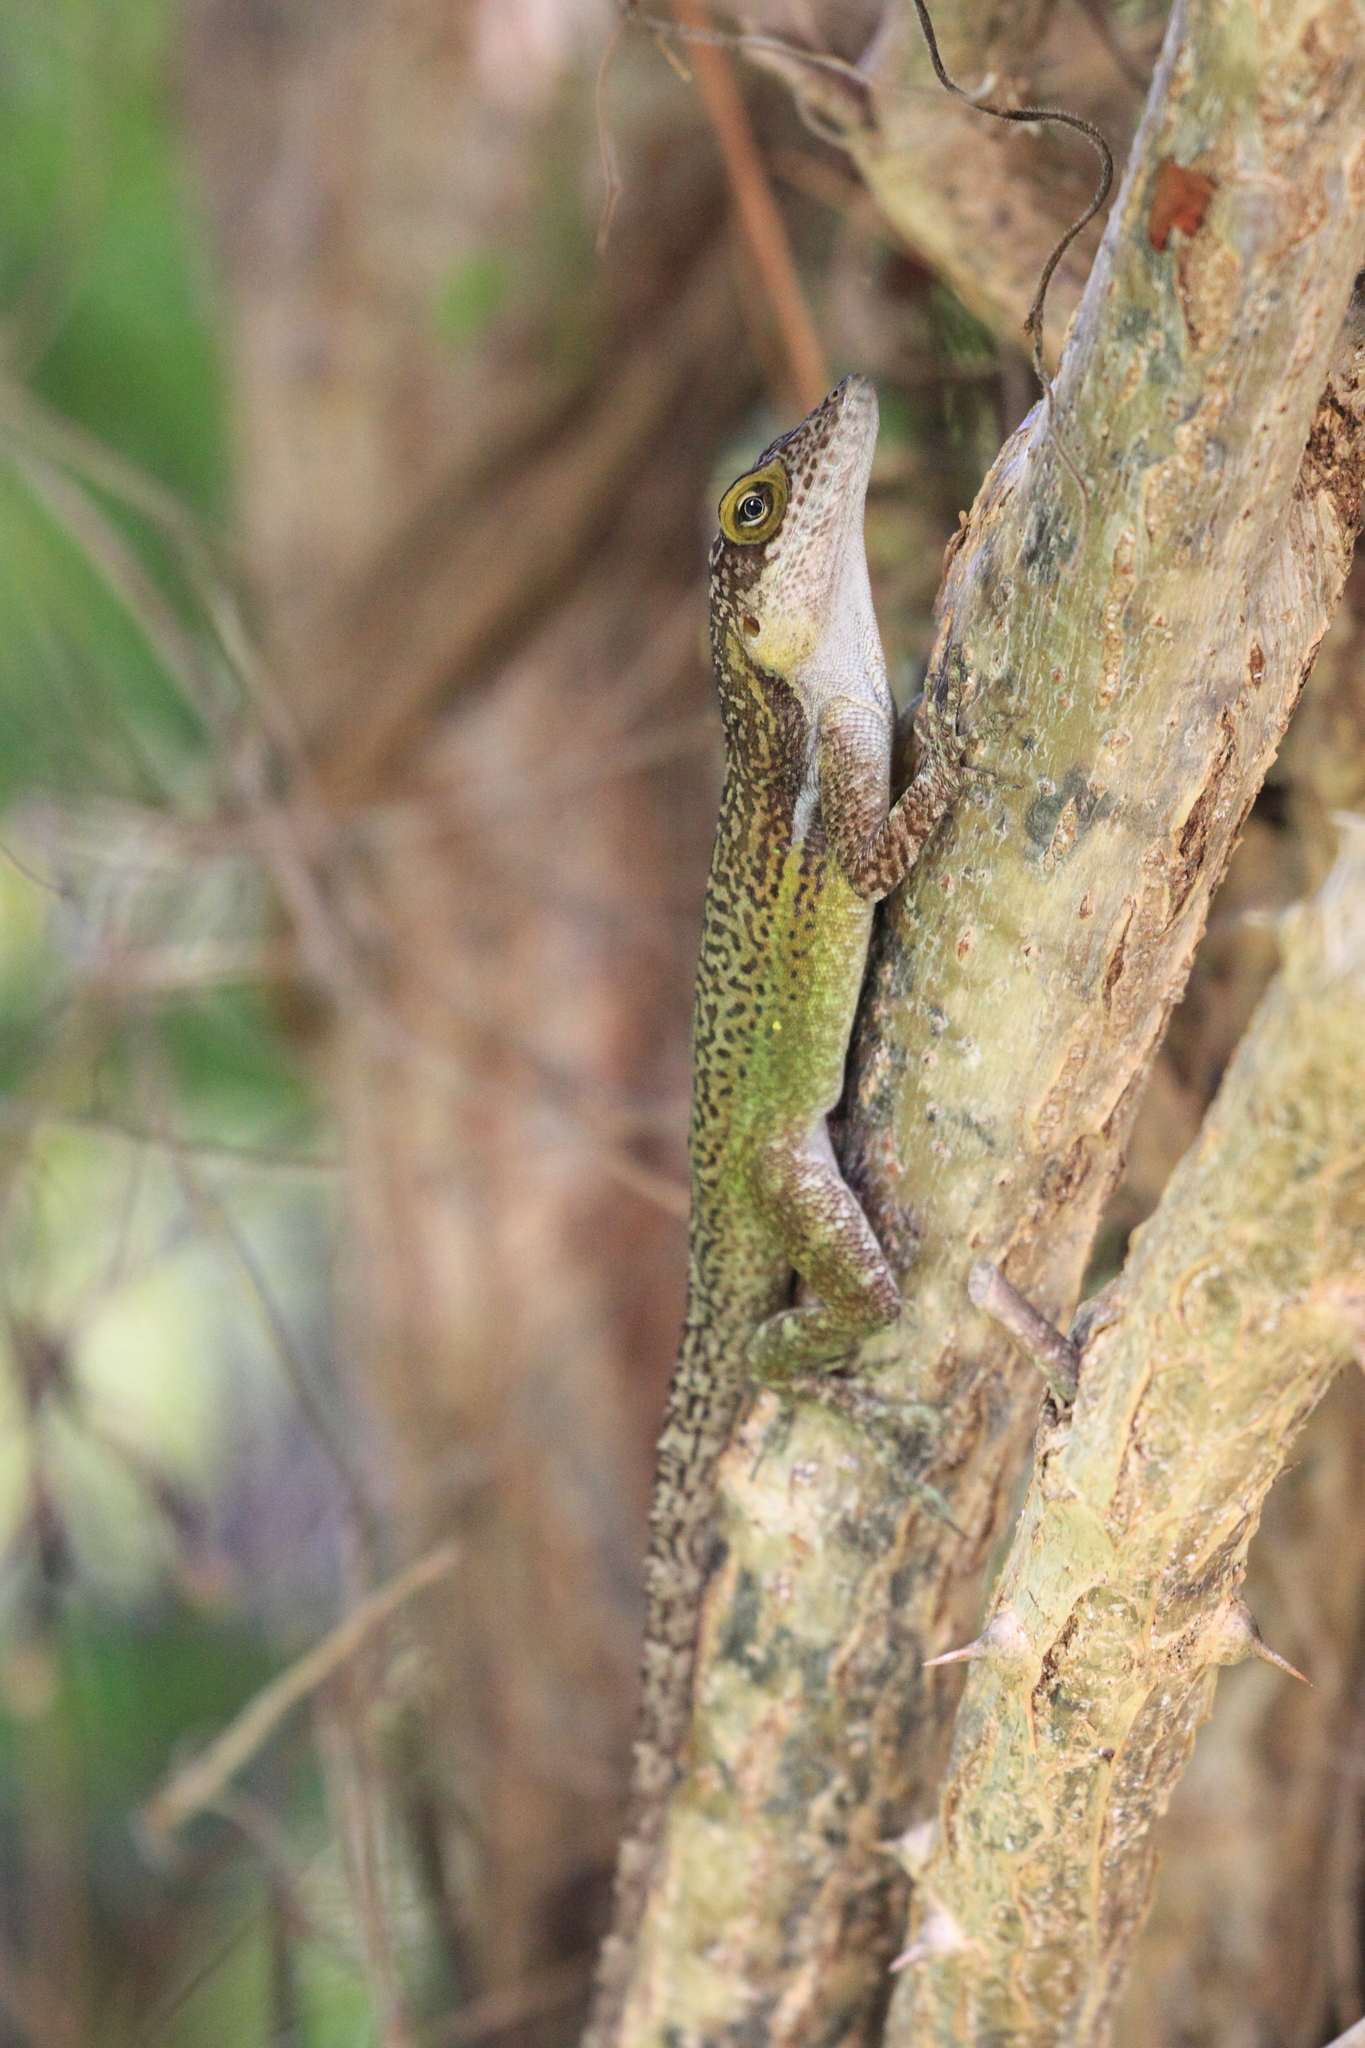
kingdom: Animalia
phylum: Chordata
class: Squamata
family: Dactyloidae
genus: Anolis
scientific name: Anolis leachii
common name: Barbuda bank tree anole
